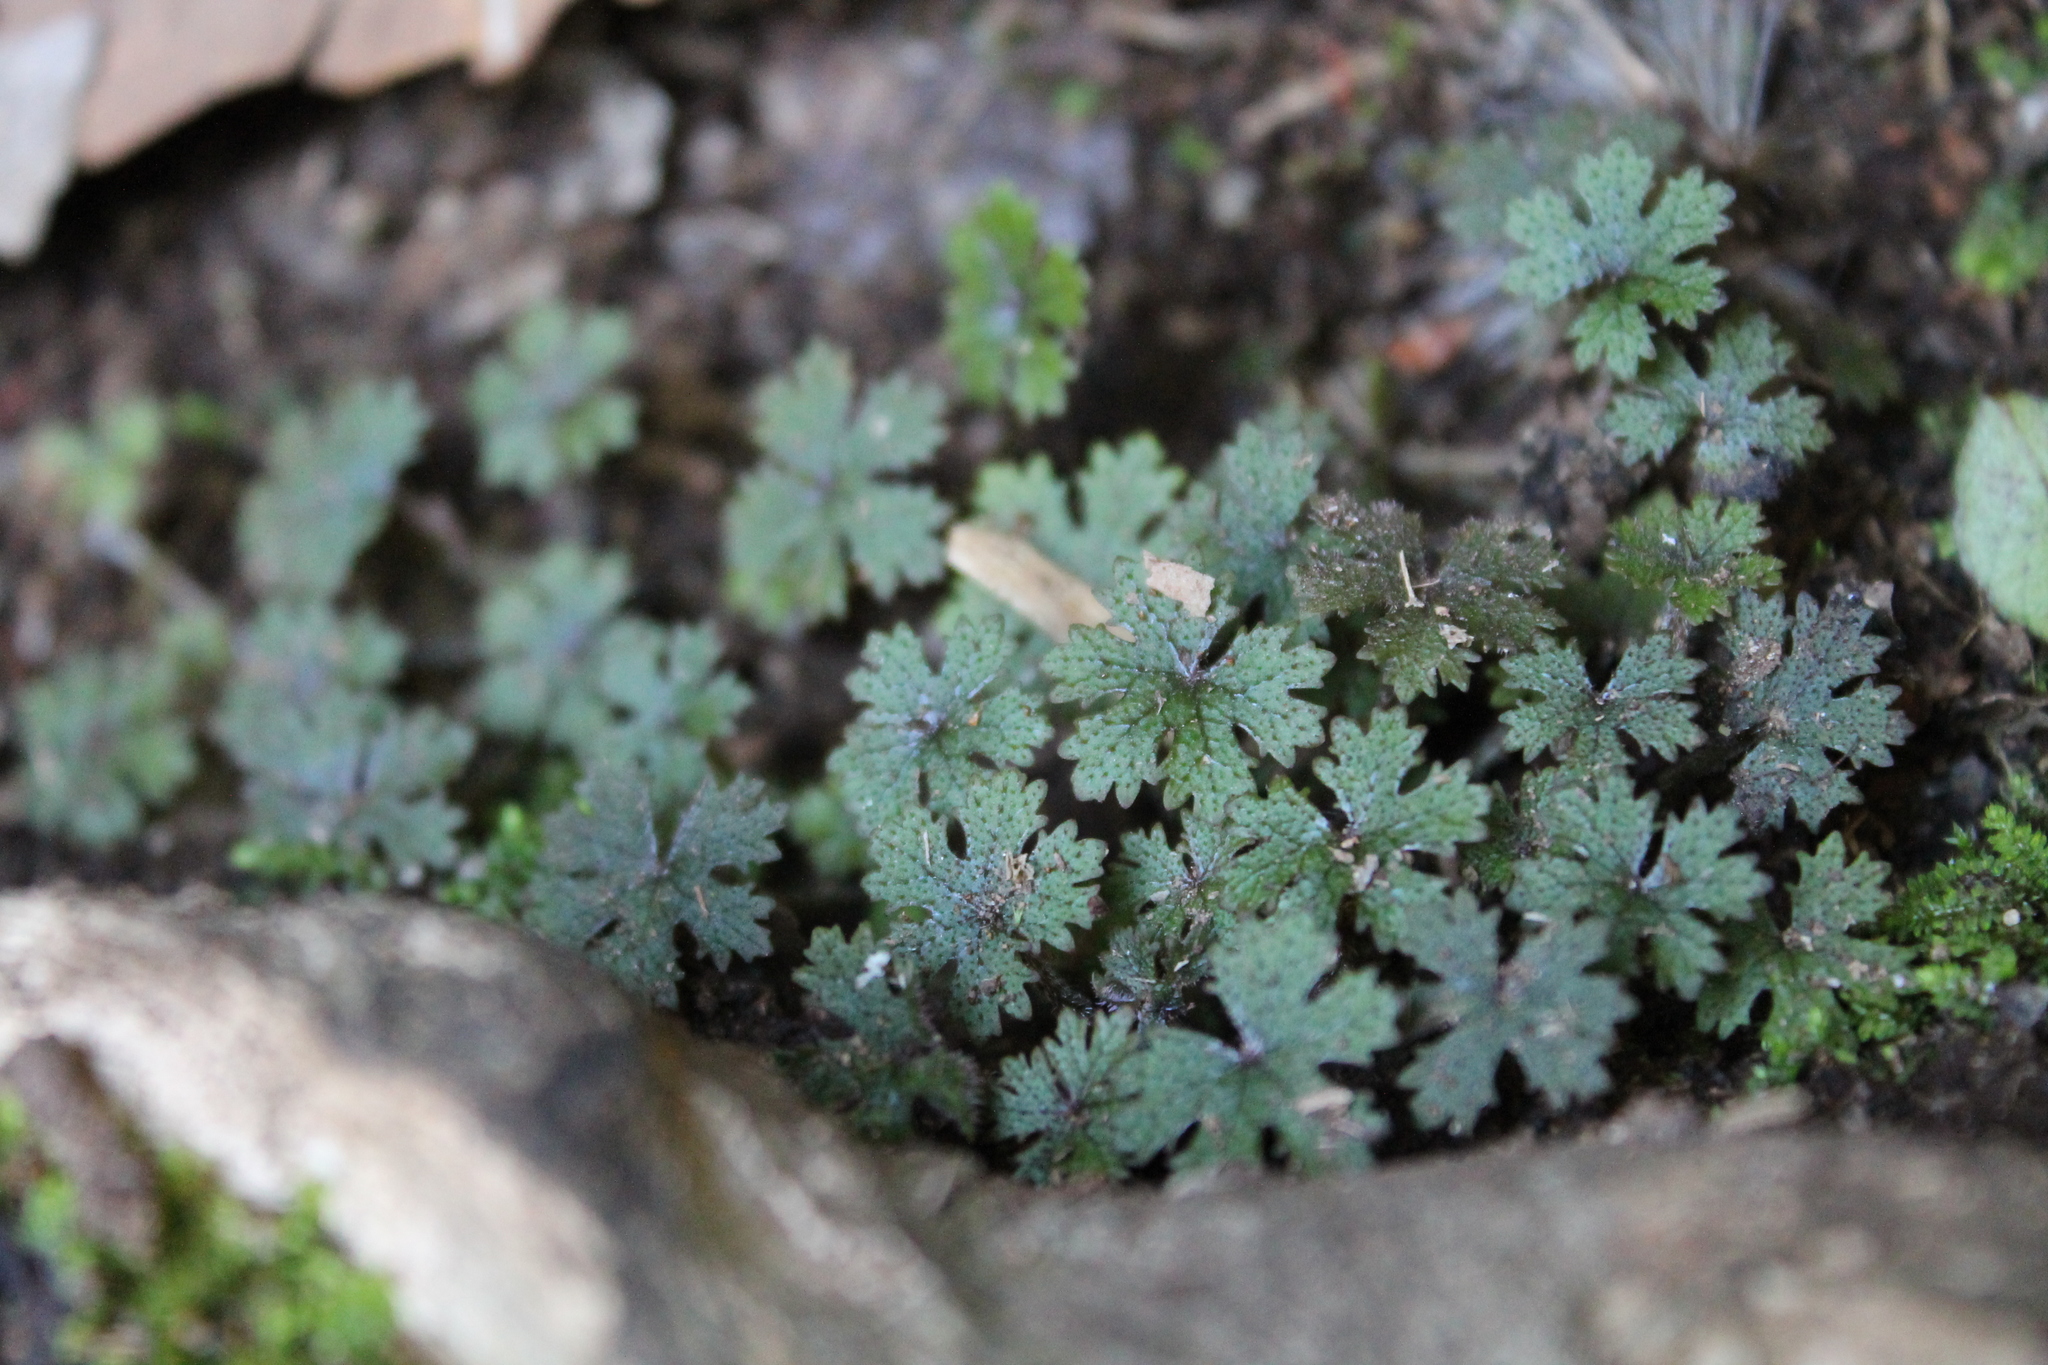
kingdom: Plantae
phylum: Tracheophyta
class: Magnoliopsida
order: Apiales
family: Araliaceae
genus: Hydrocotyle
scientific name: Hydrocotyle dissecta
